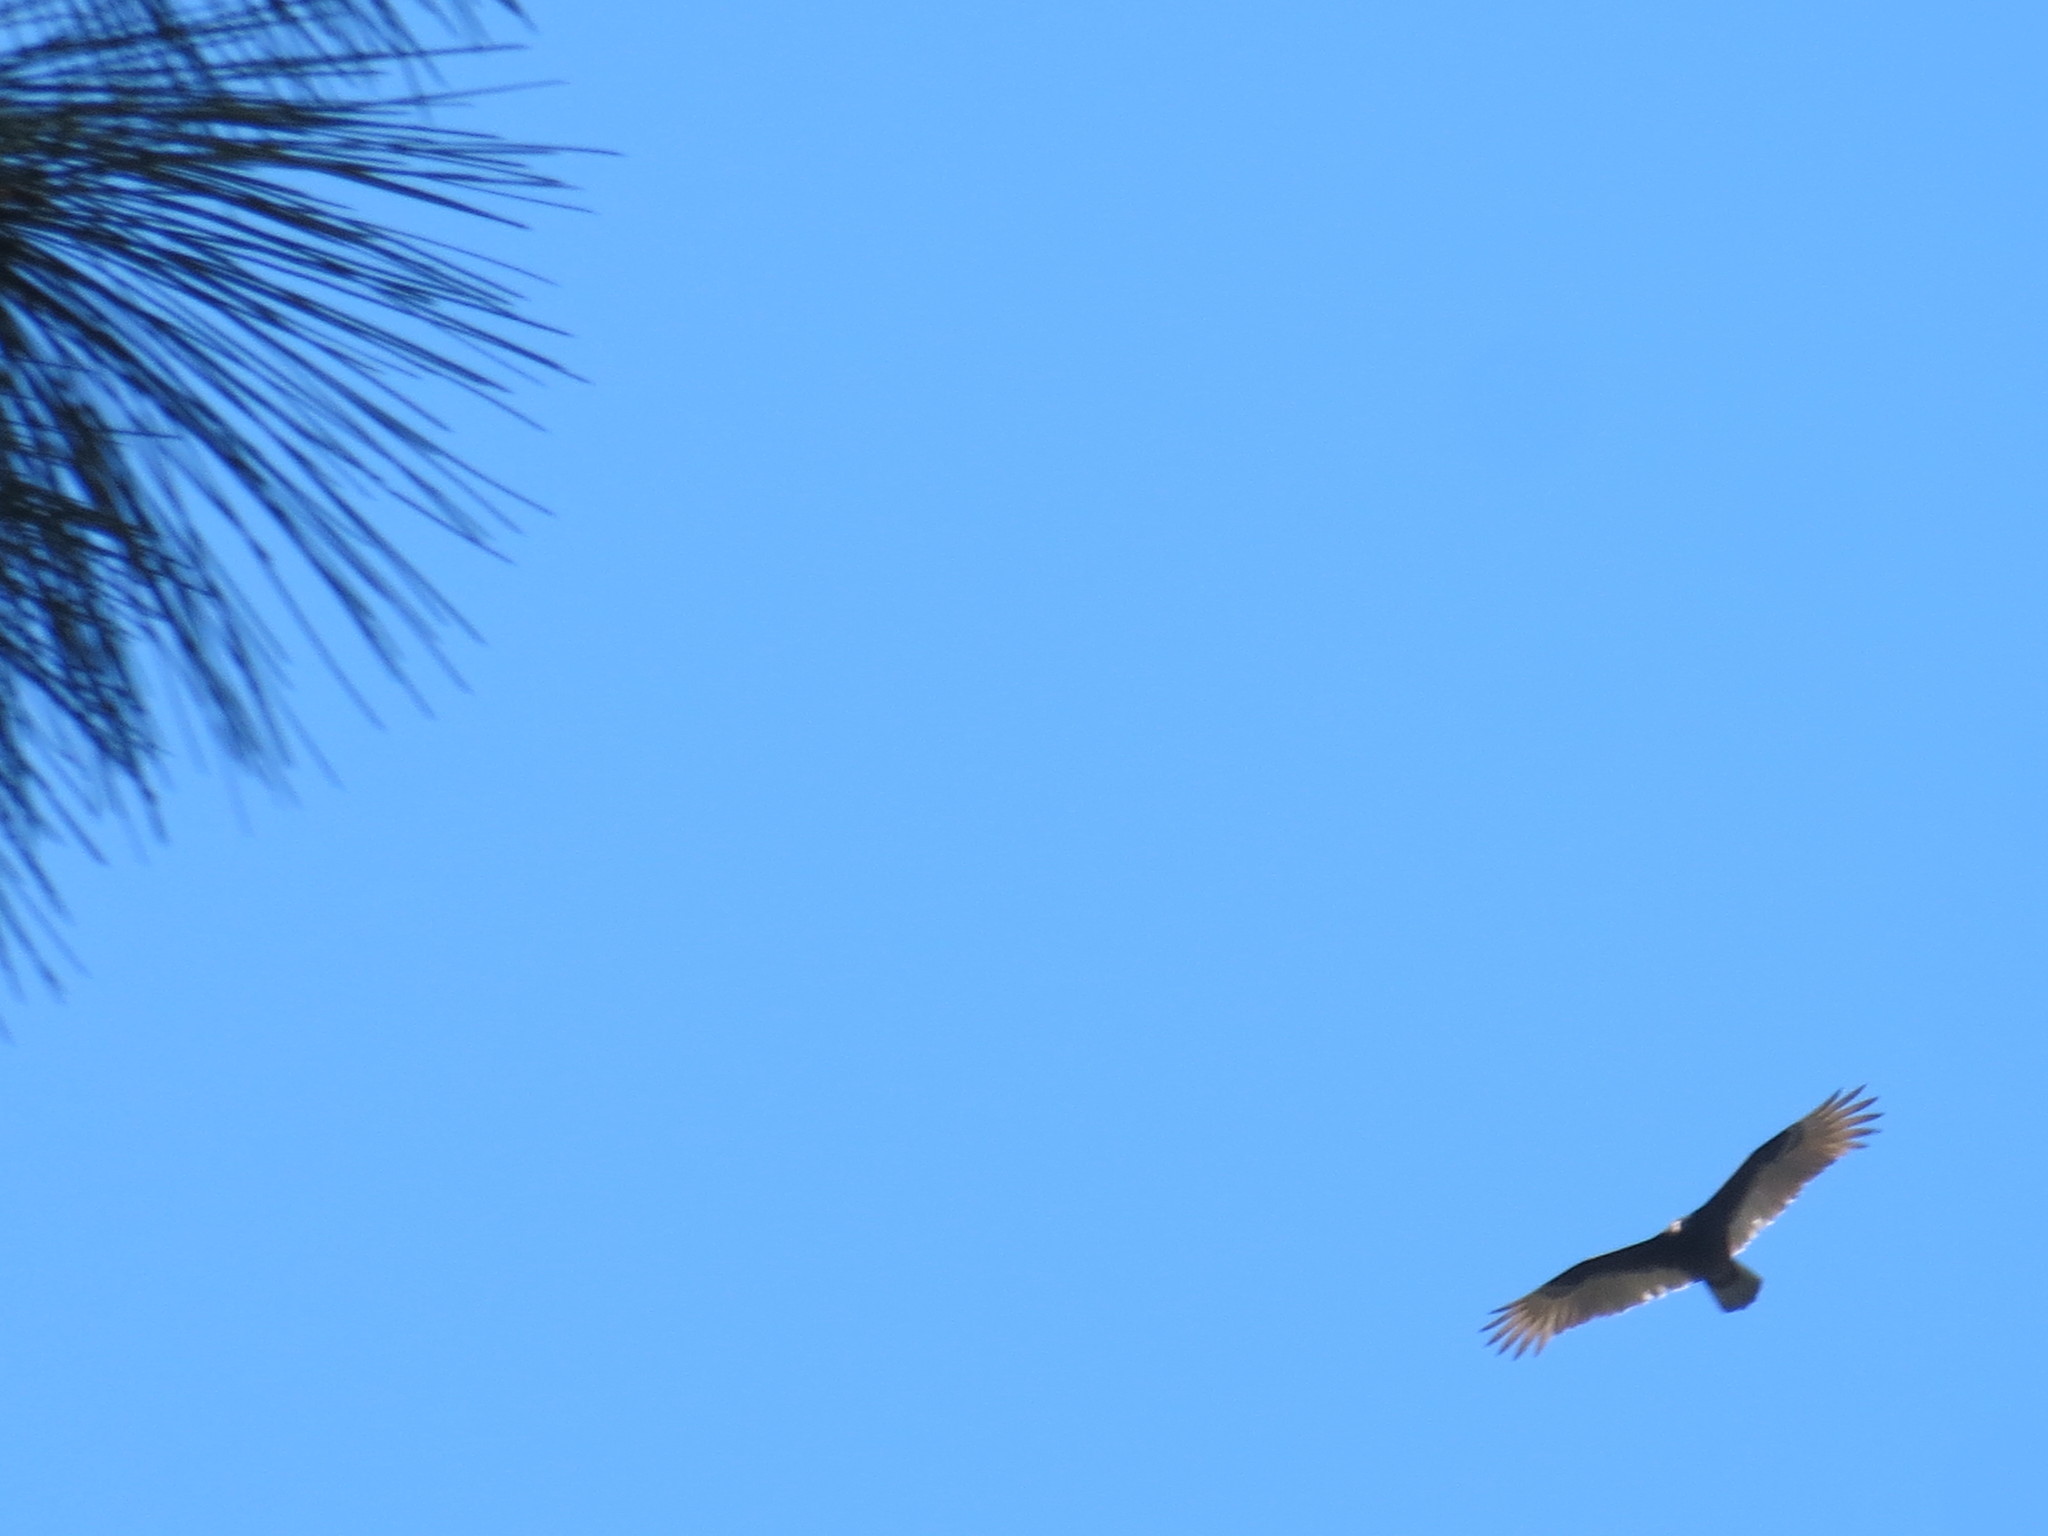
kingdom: Animalia
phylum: Chordata
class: Aves
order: Accipitriformes
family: Cathartidae
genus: Cathartes
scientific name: Cathartes aura
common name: Turkey vulture
